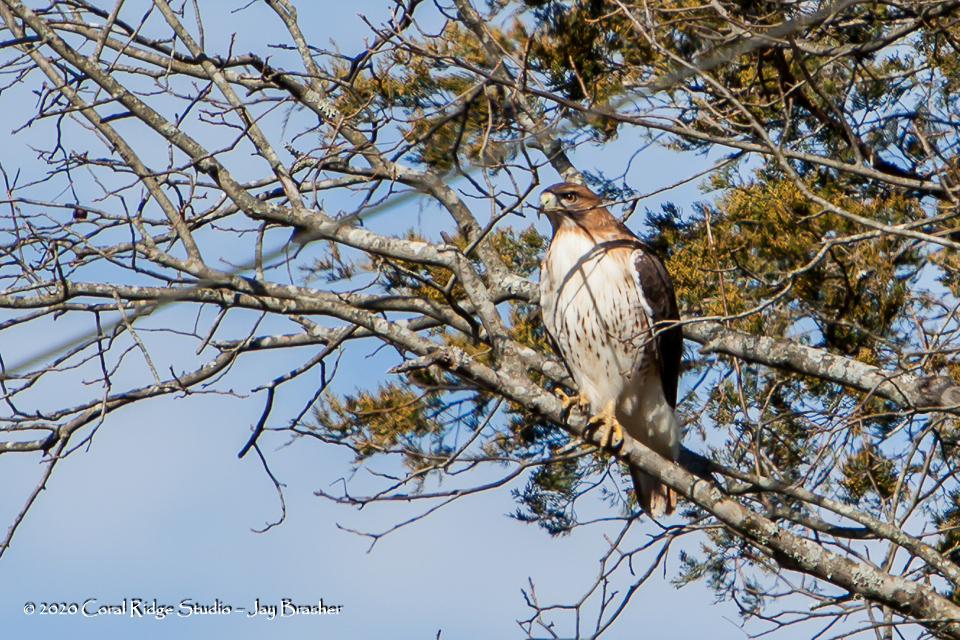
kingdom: Animalia
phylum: Chordata
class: Aves
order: Accipitriformes
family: Accipitridae
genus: Buteo
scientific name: Buteo jamaicensis
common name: Red-tailed hawk
